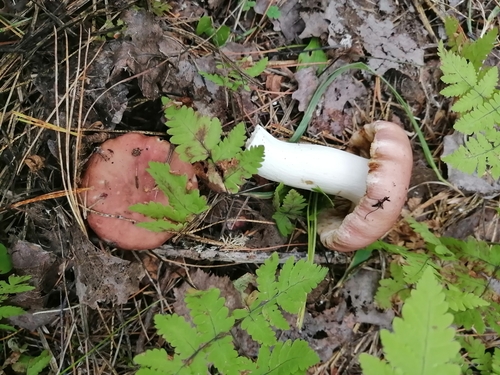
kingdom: Fungi
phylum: Basidiomycota
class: Agaricomycetes
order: Russulales
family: Russulaceae
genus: Russula
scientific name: Russula vesca
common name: Bare-toothed russula
